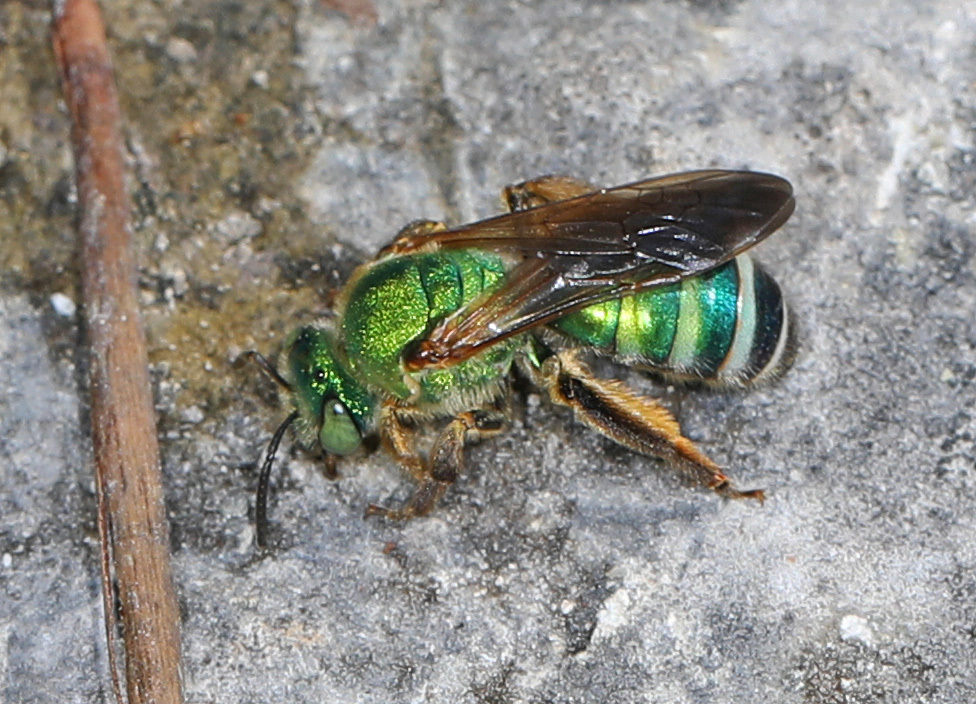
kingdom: Animalia
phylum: Arthropoda
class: Insecta
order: Hymenoptera
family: Halictidae
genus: Agapostemon
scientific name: Agapostemon splendens
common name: Brown-winged striped sweat bee
